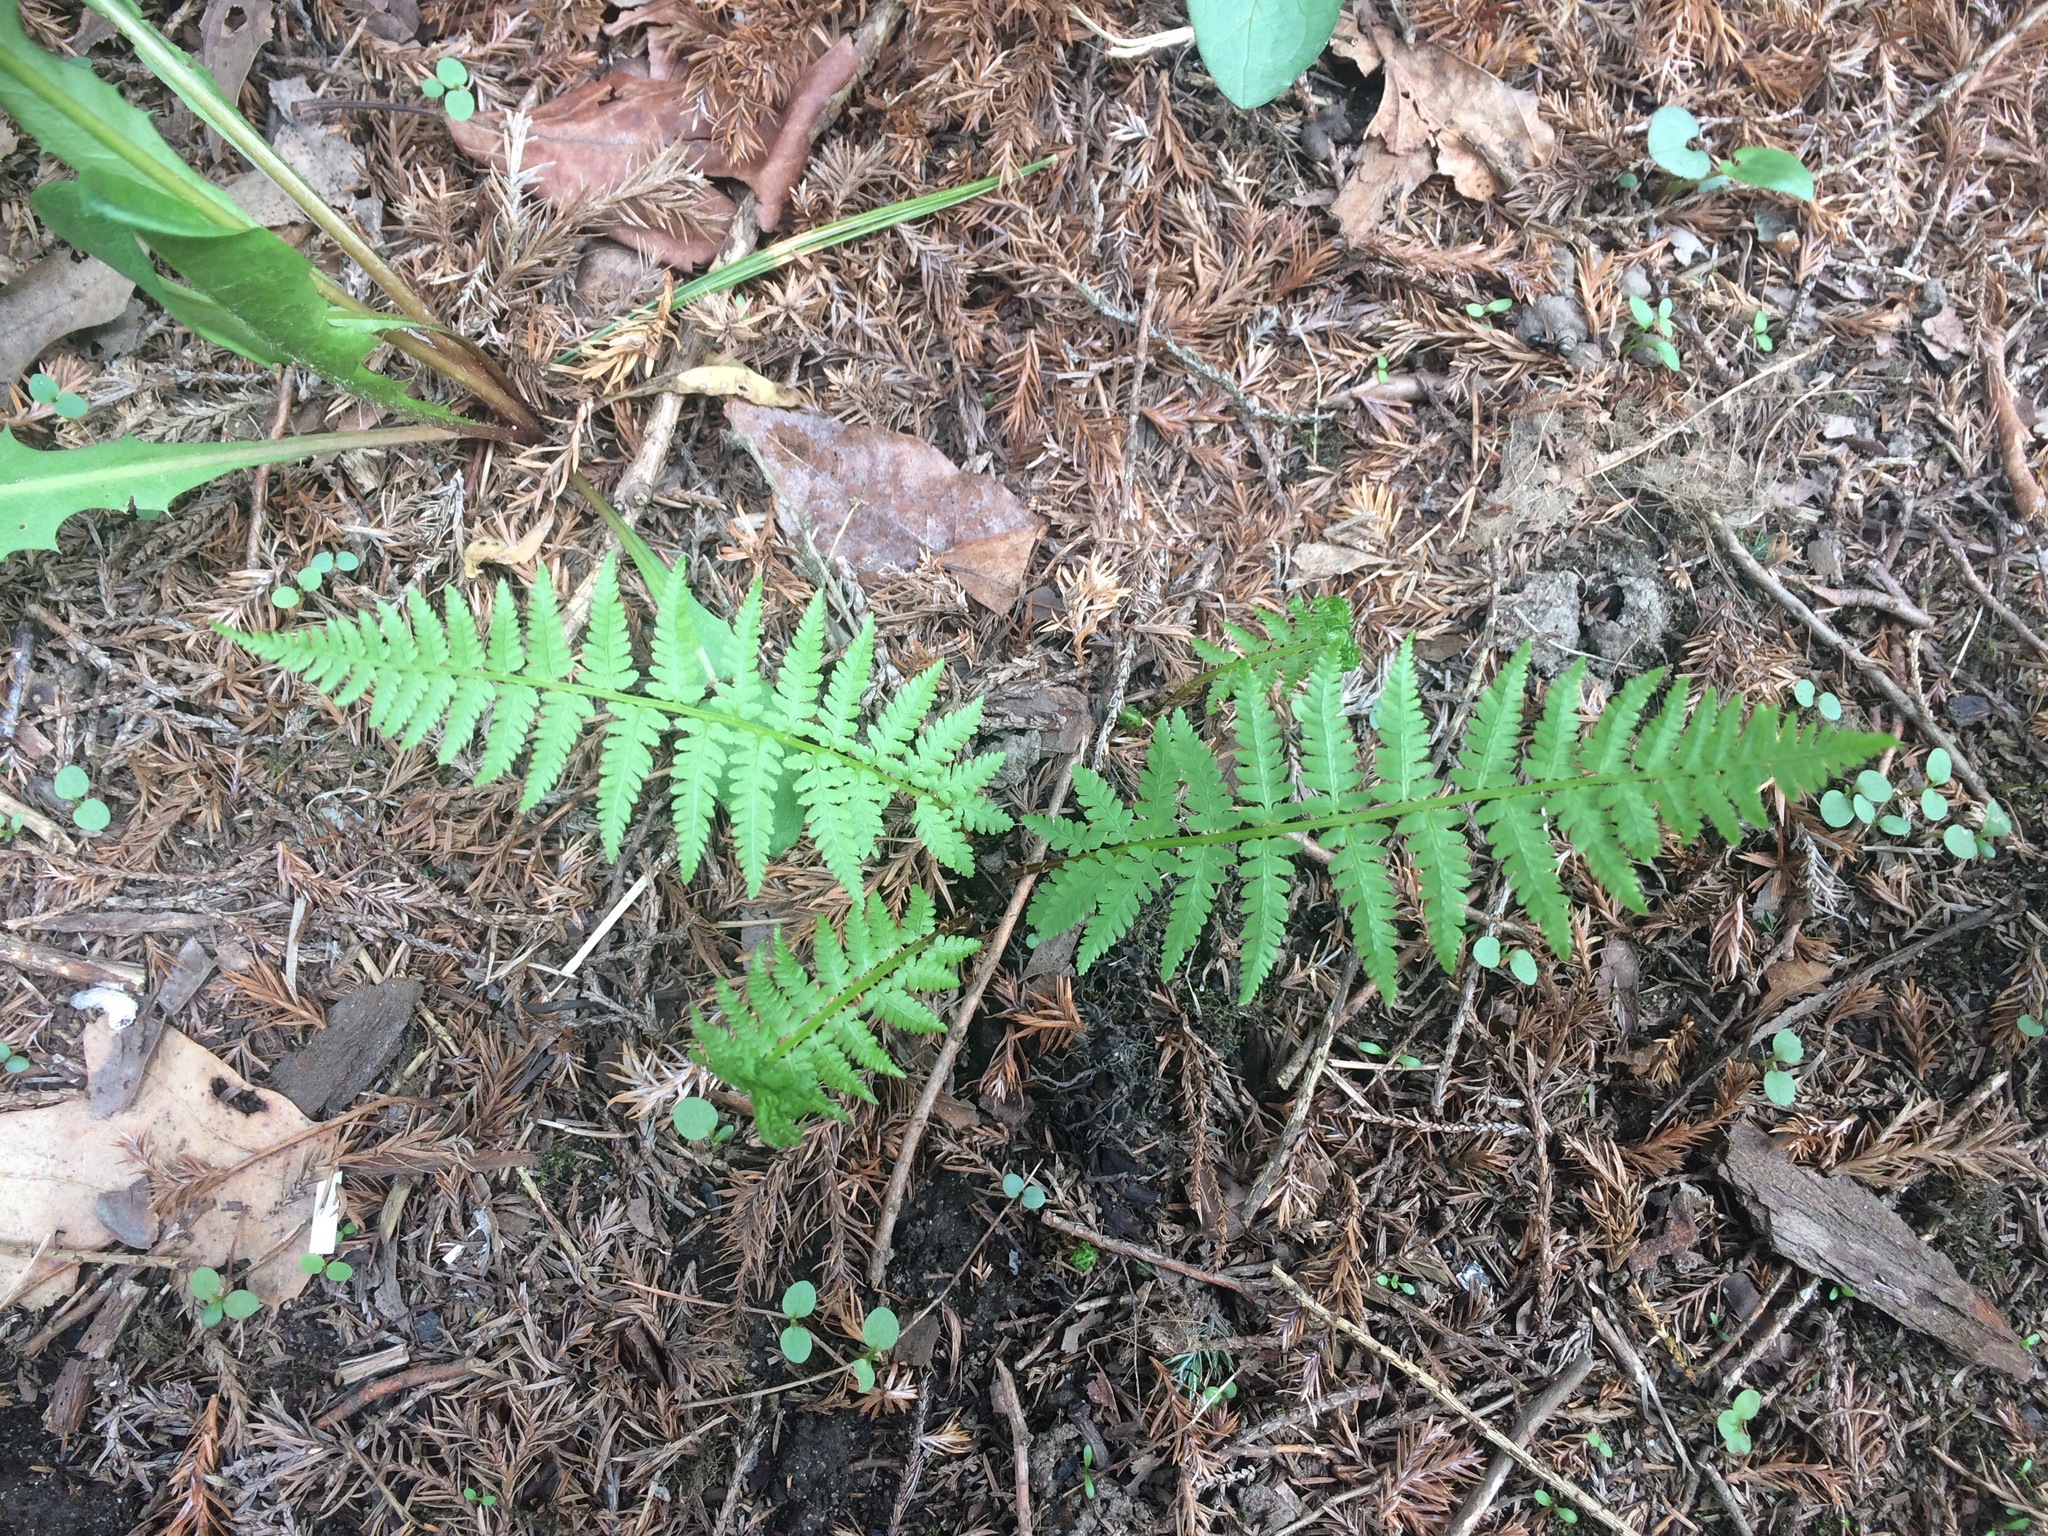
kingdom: Plantae
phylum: Tracheophyta
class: Polypodiopsida
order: Polypodiales
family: Athyriaceae
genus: Athyrium
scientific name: Athyrium angustum
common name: Northern lady fern
